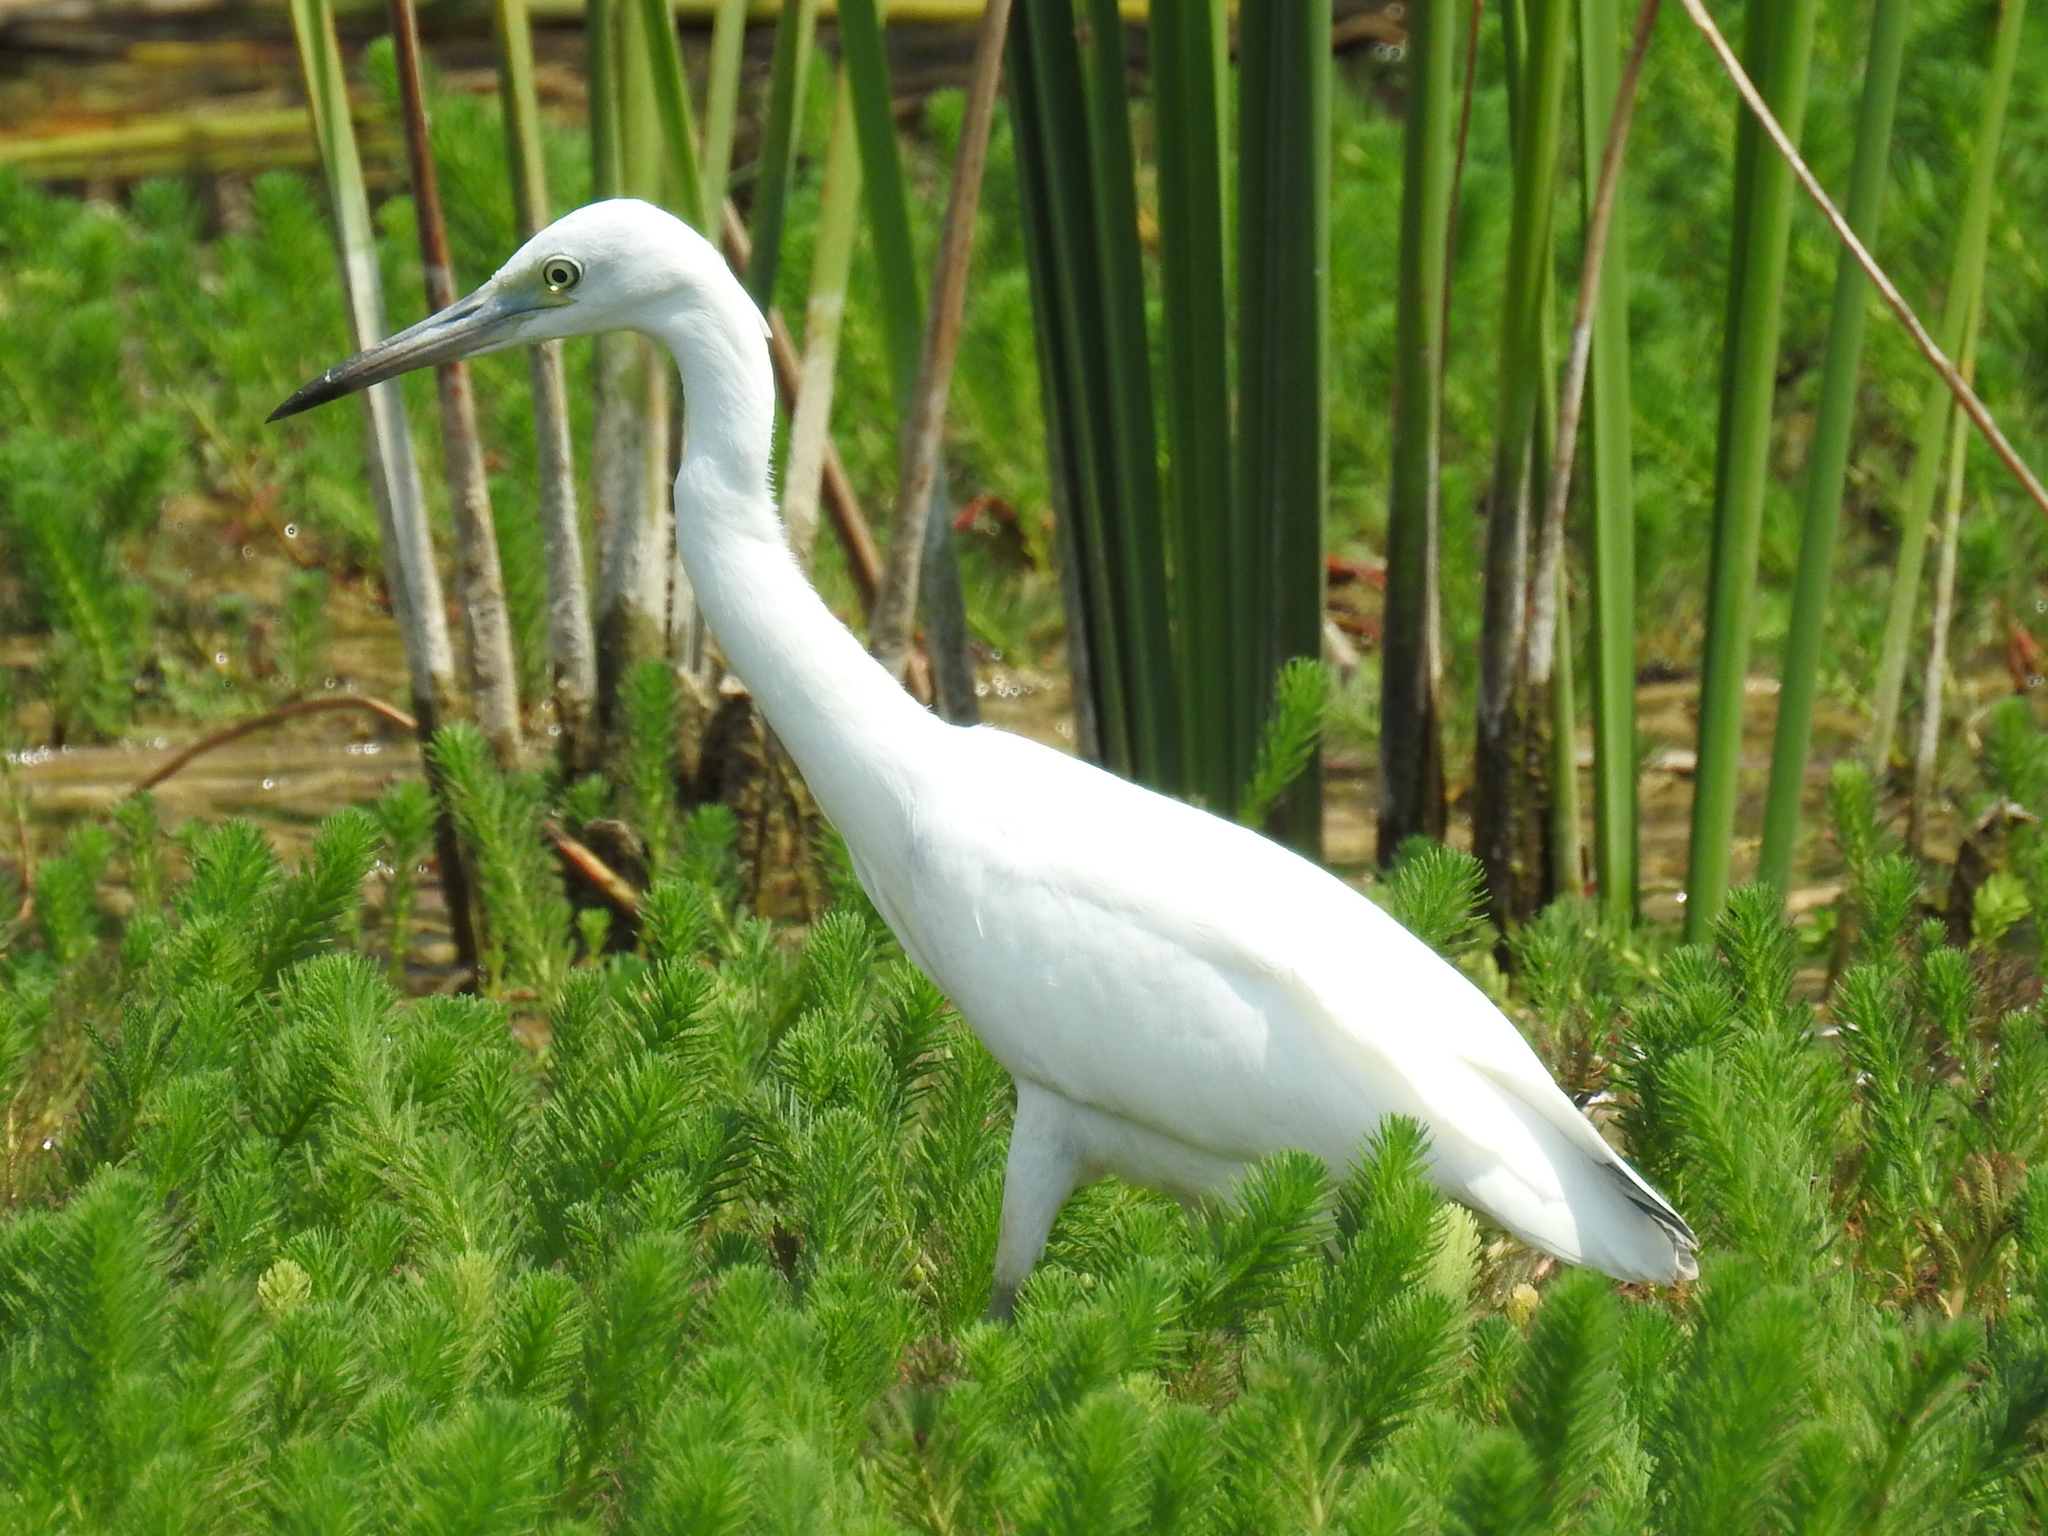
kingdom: Animalia
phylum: Chordata
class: Aves
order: Pelecaniformes
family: Ardeidae
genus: Egretta
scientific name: Egretta caerulea
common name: Little blue heron
